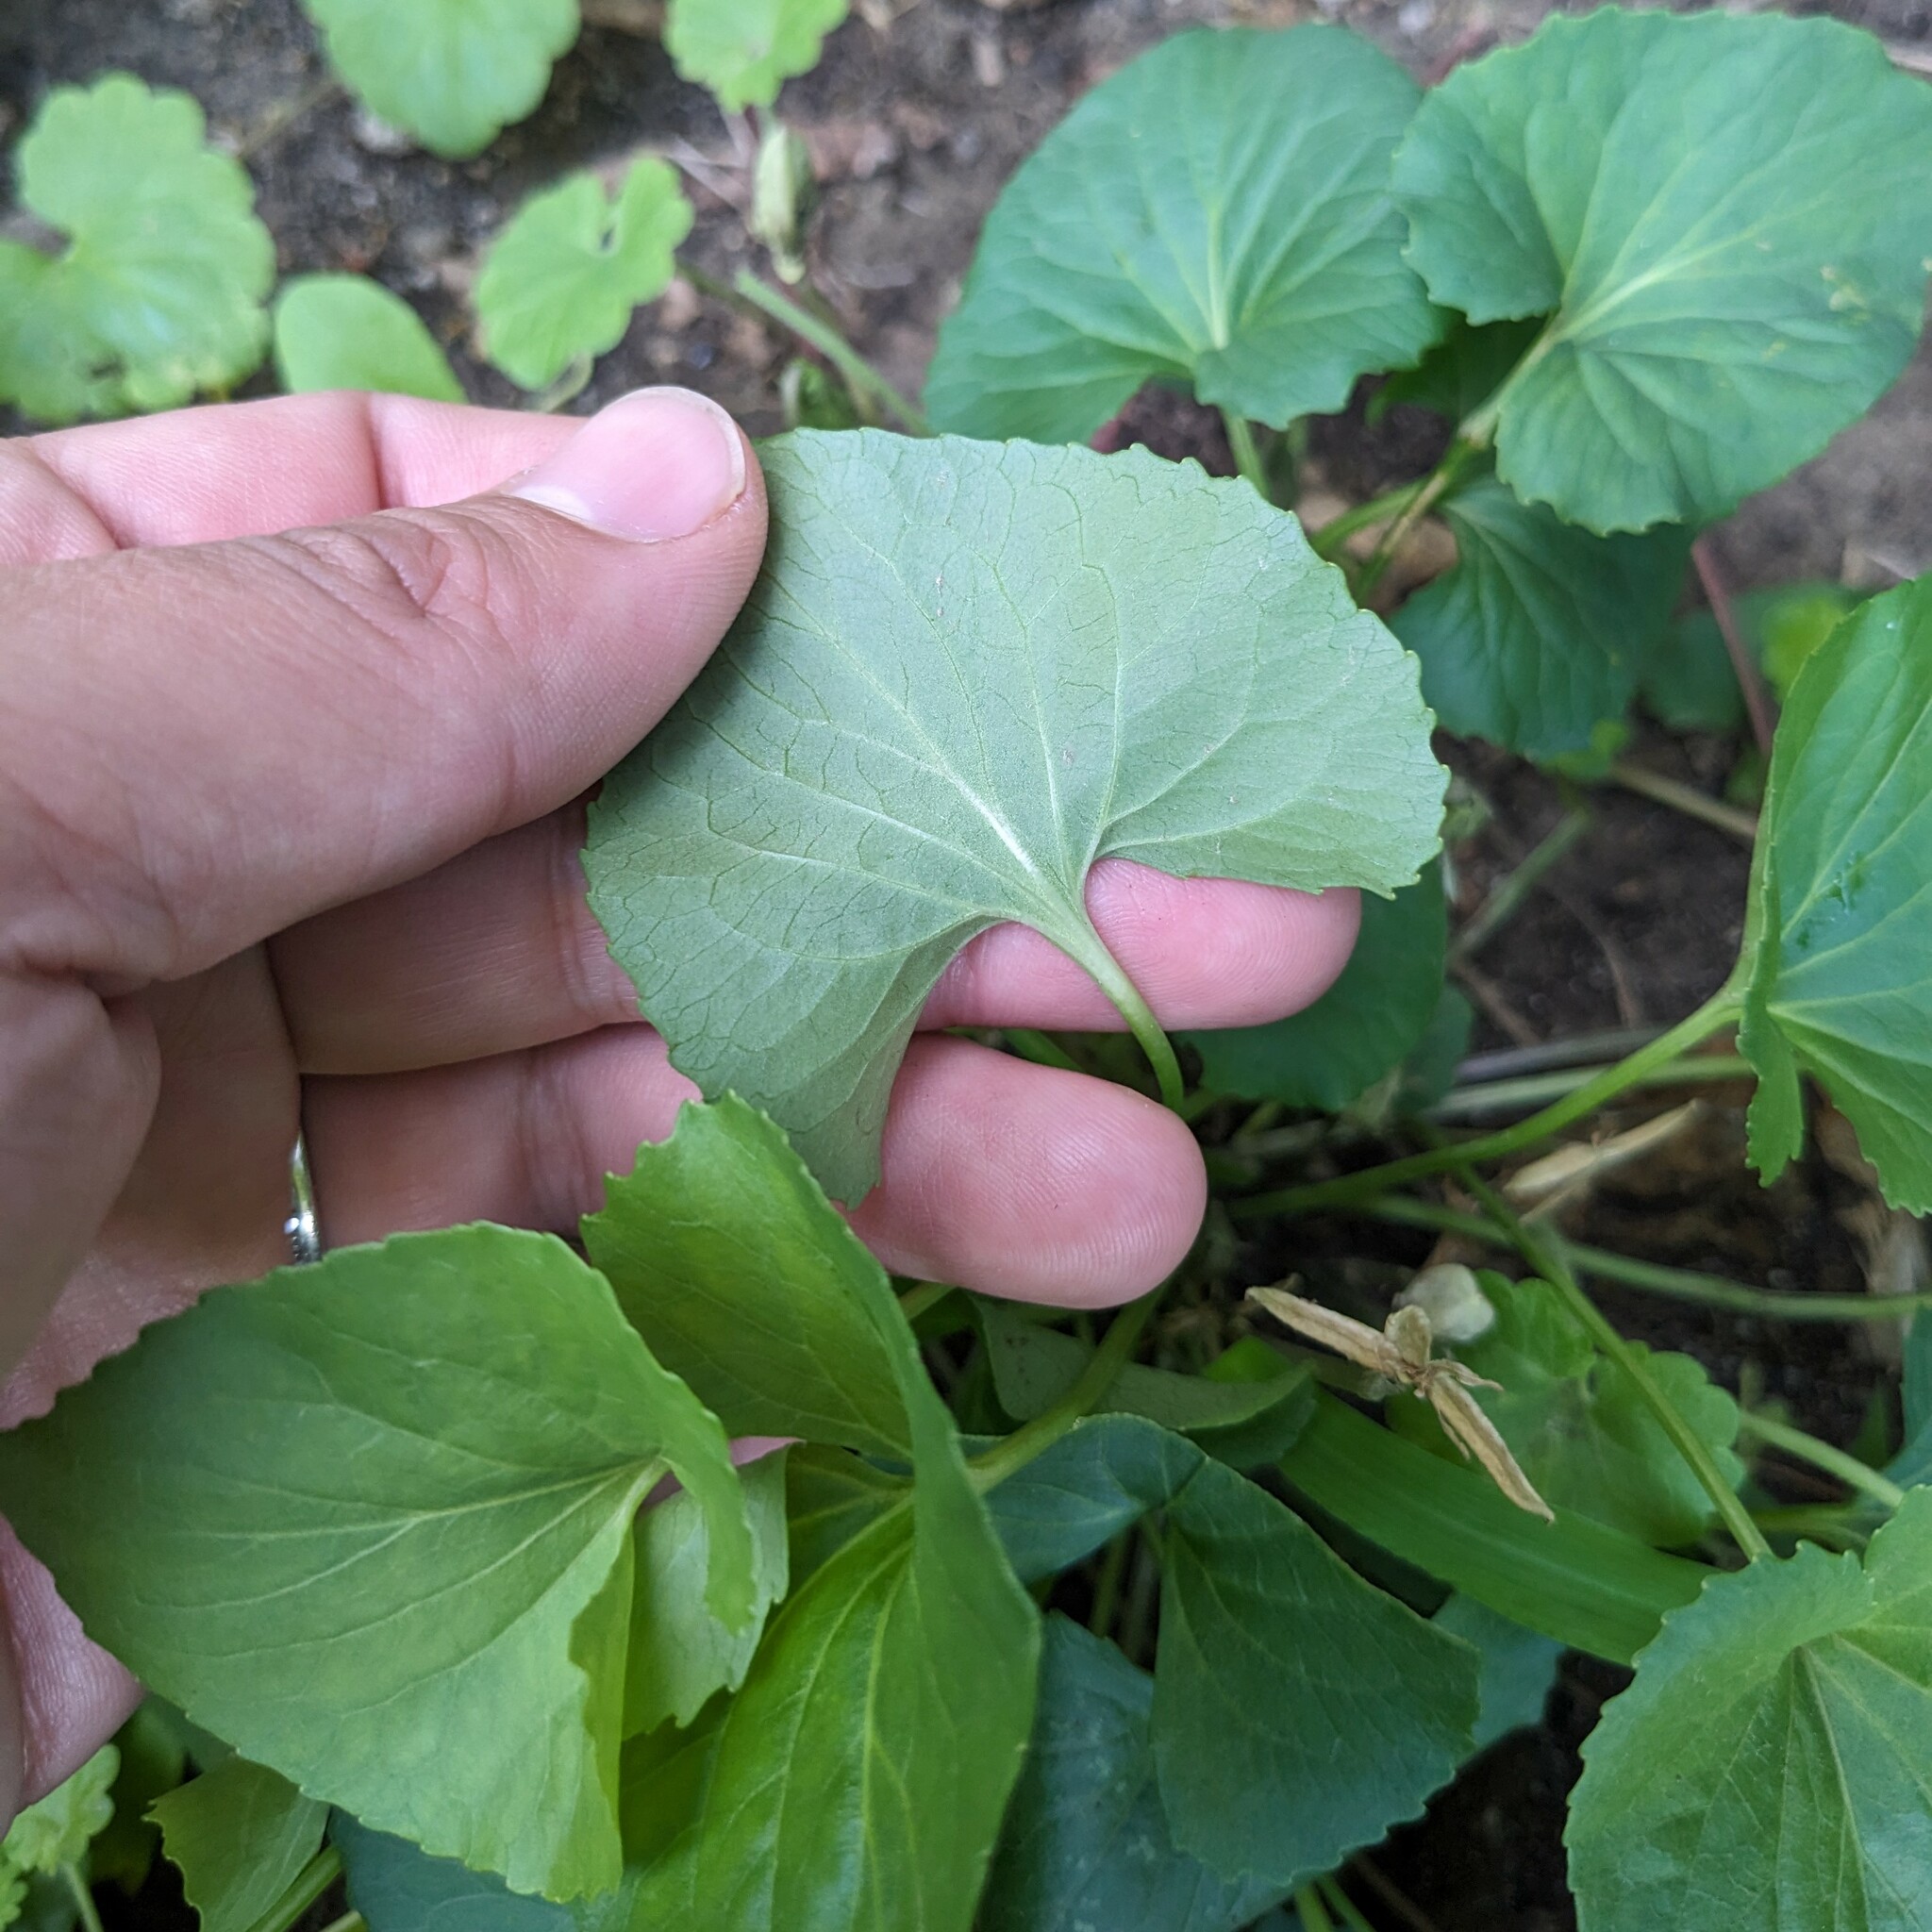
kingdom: Plantae
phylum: Tracheophyta
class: Magnoliopsida
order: Malpighiales
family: Violaceae
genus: Viola
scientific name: Viola sororia
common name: Dooryard violet
